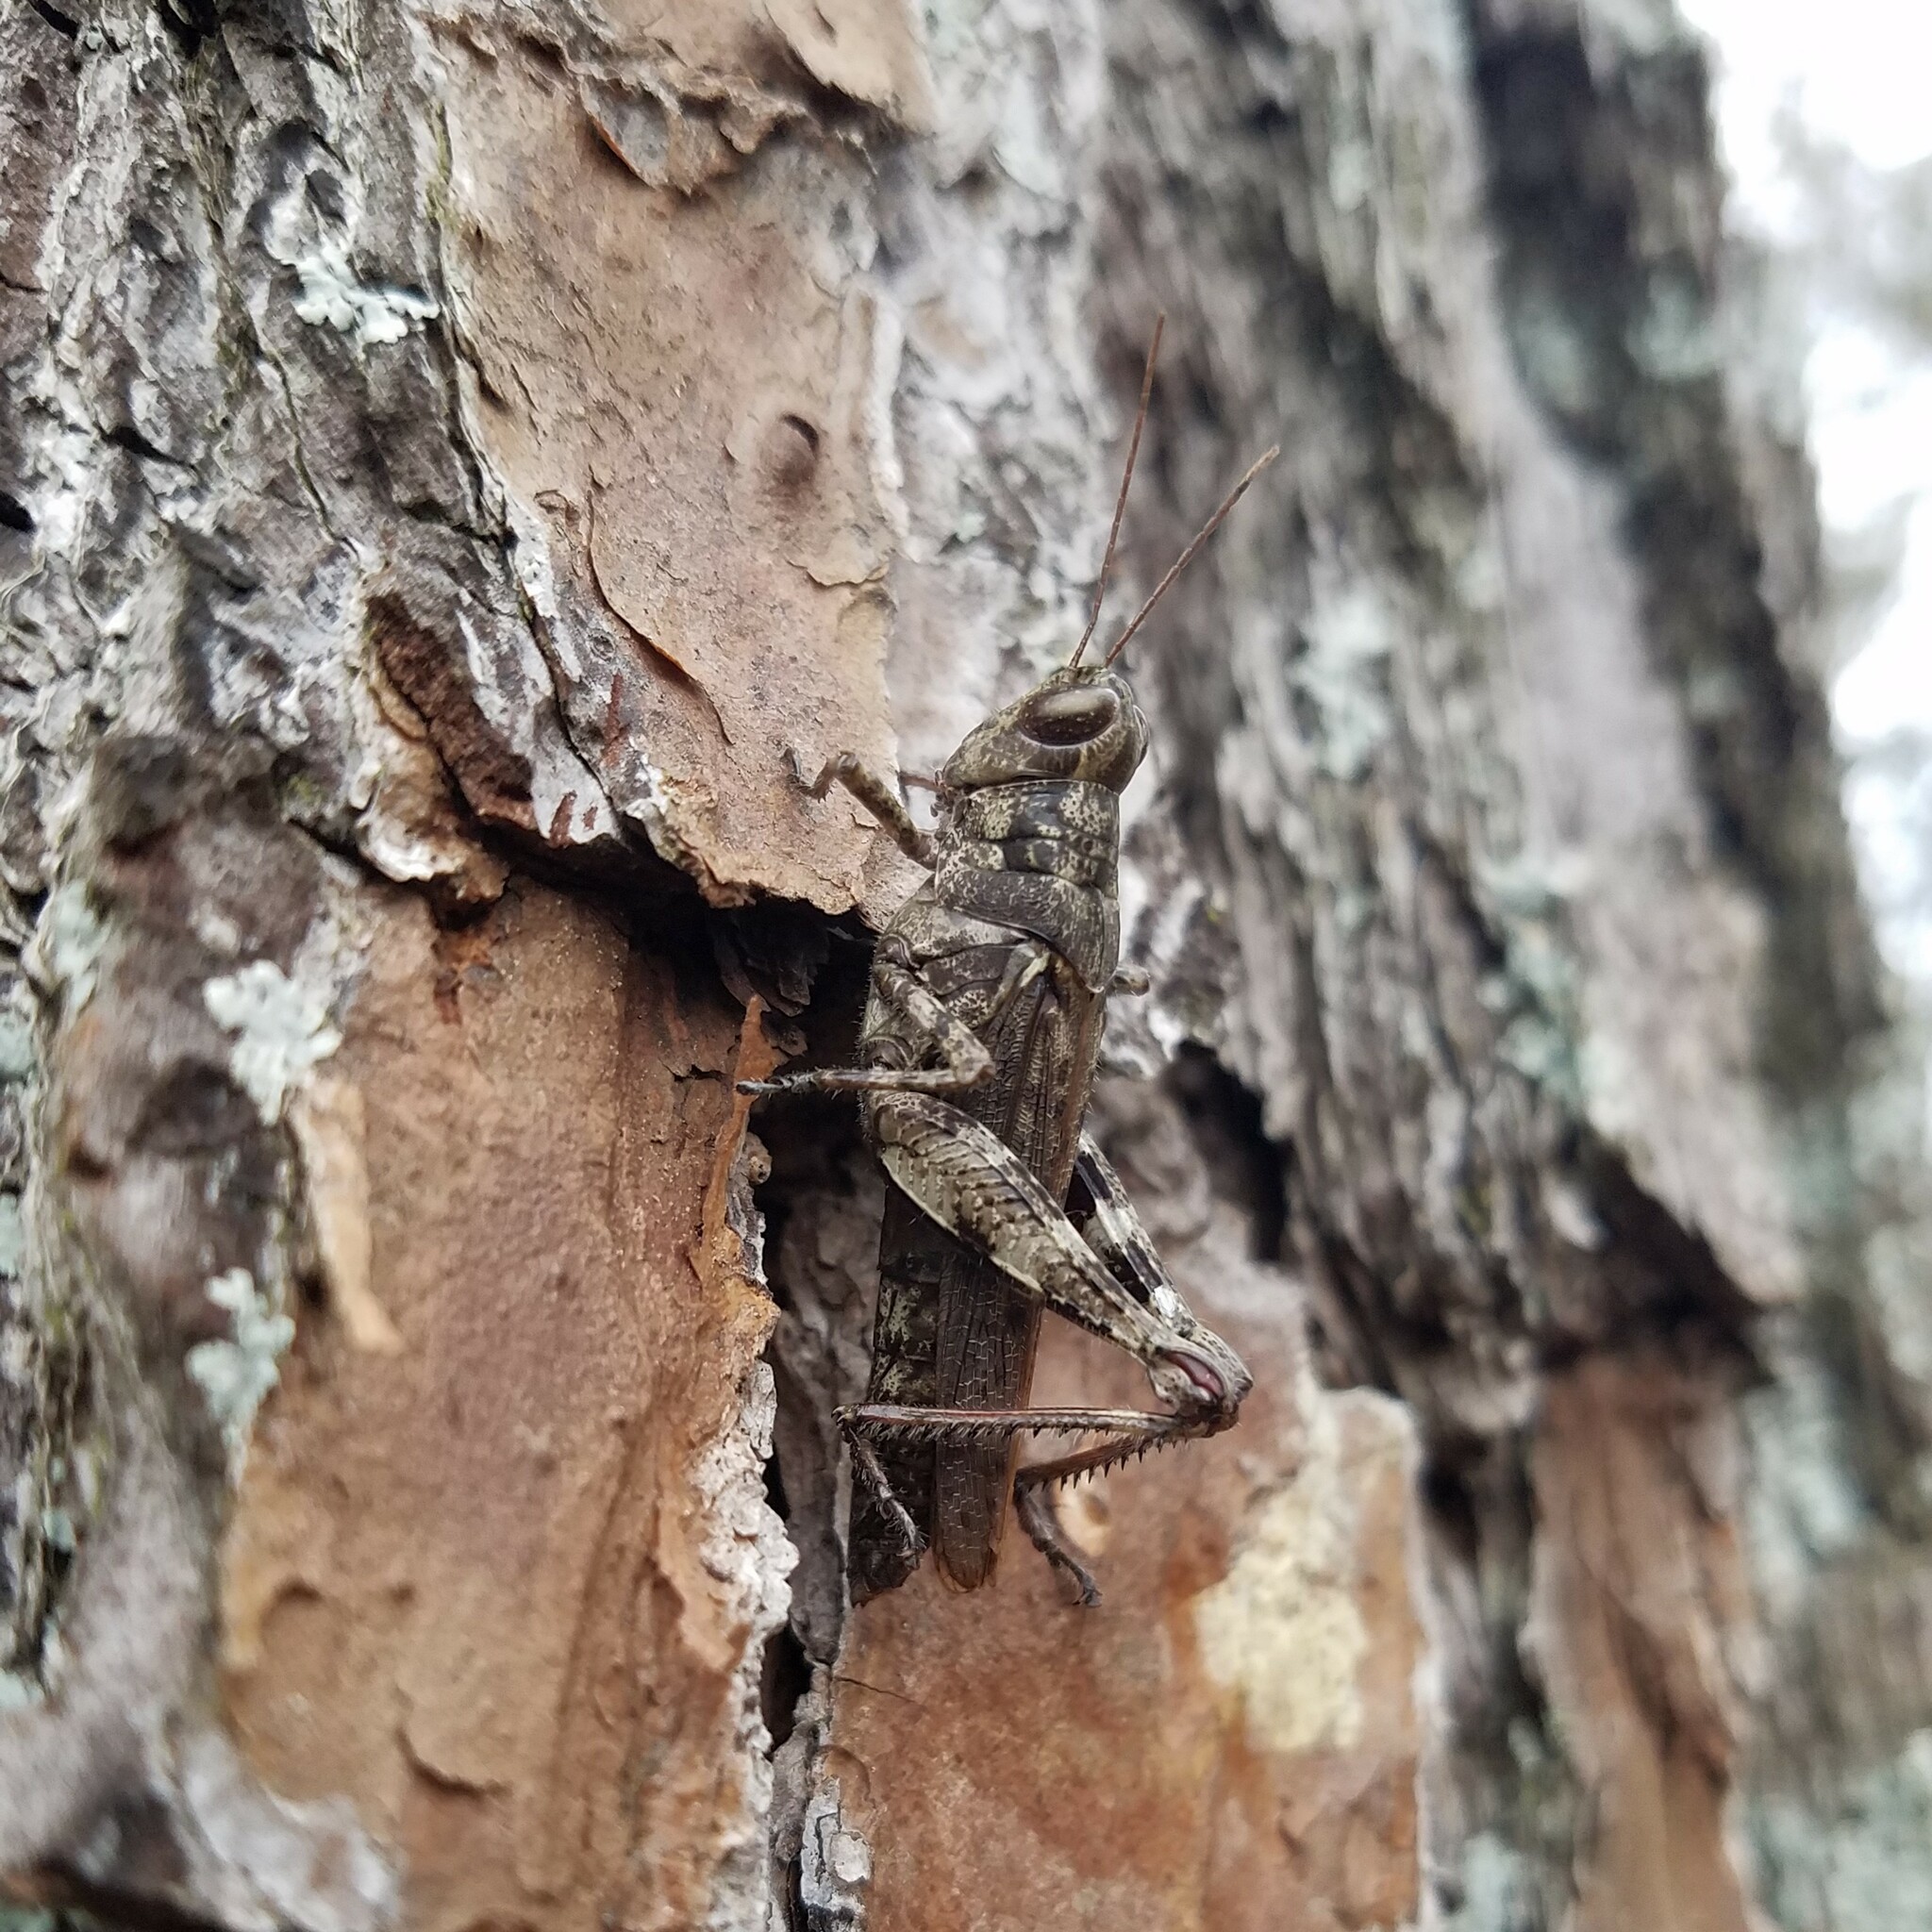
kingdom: Animalia
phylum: Arthropoda
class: Insecta
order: Orthoptera
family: Acrididae
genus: Melanoplus
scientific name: Melanoplus punctulatus
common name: Pine-tree spur-throat grasshopper
